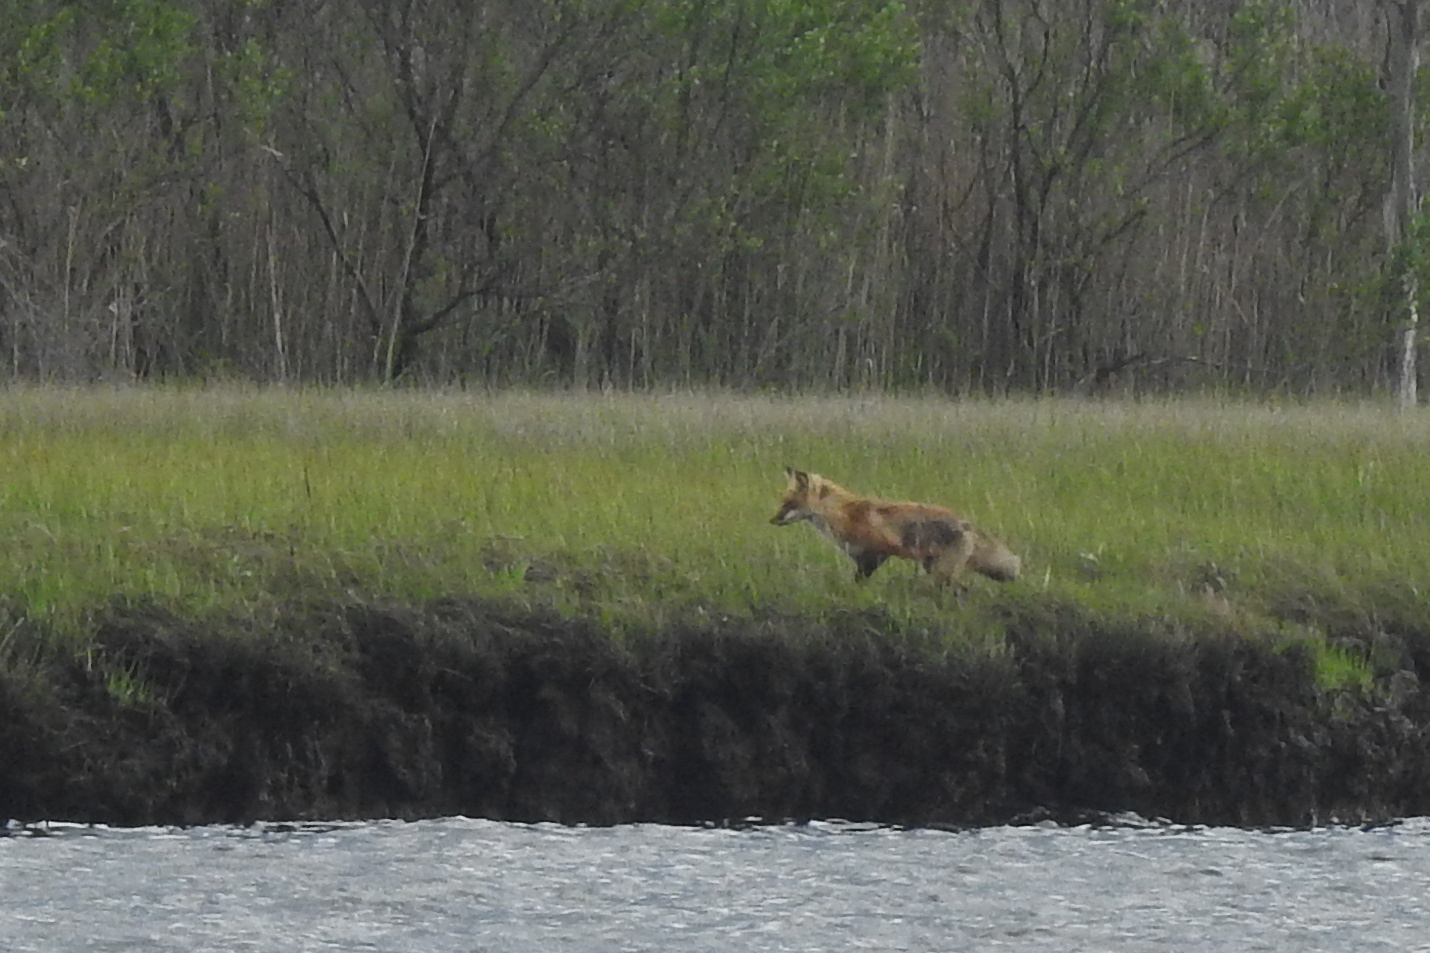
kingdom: Animalia
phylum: Chordata
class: Mammalia
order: Carnivora
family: Canidae
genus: Vulpes
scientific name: Vulpes vulpes
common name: Red fox
